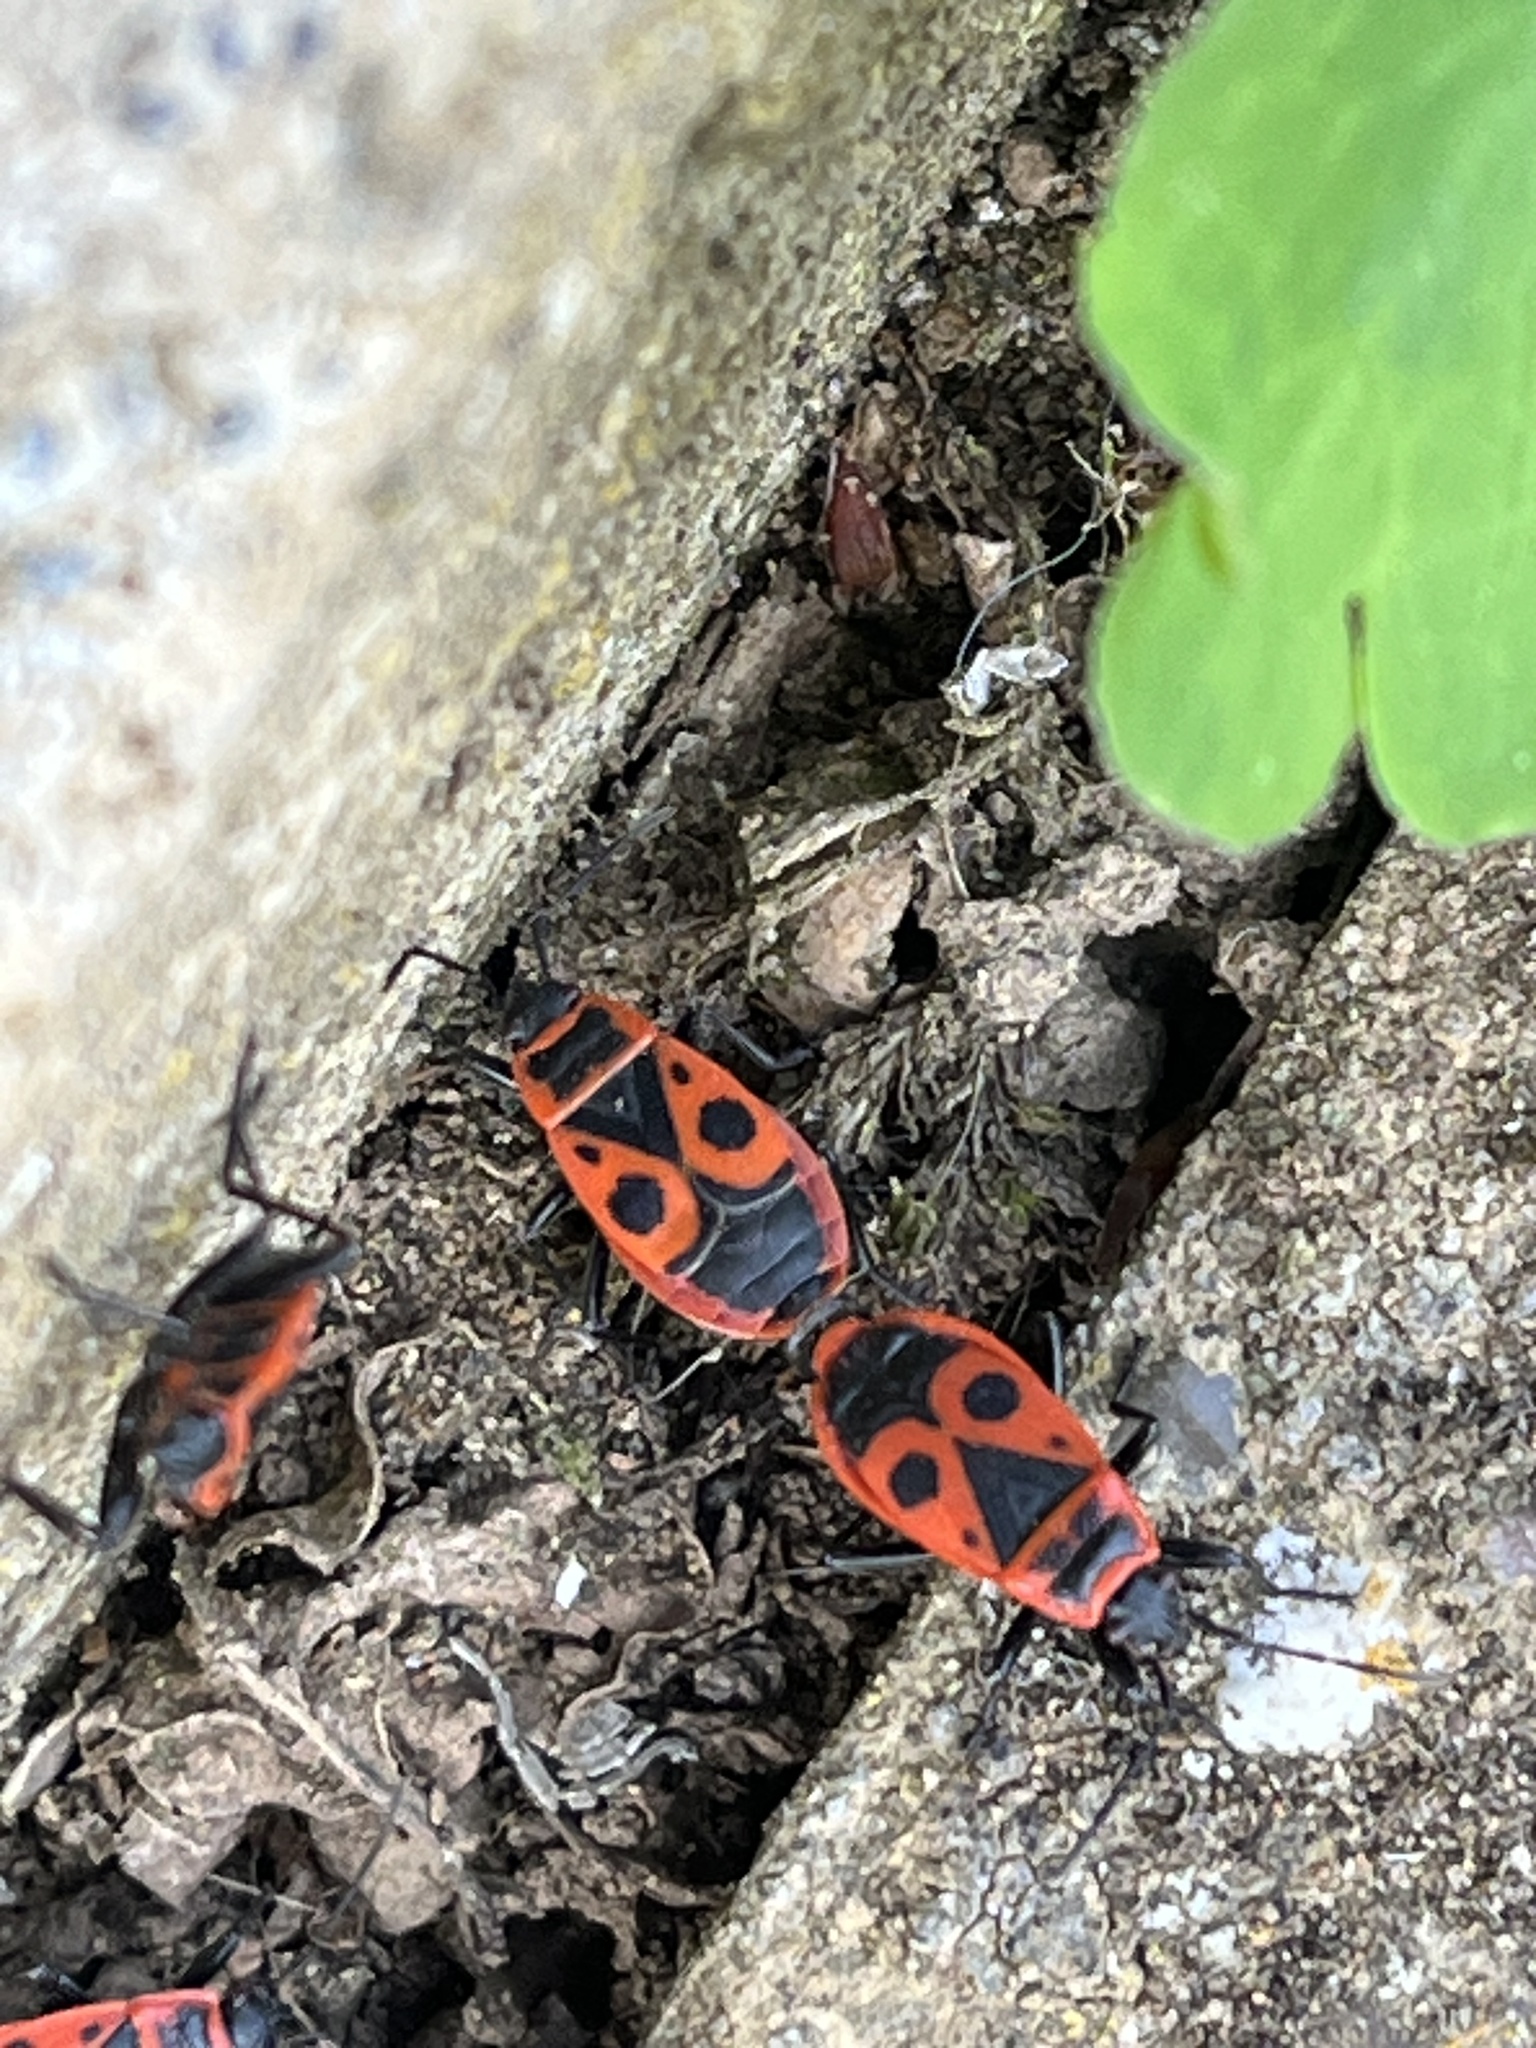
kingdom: Animalia
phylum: Arthropoda
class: Insecta
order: Hemiptera
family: Pyrrhocoridae
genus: Pyrrhocoris
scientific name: Pyrrhocoris apterus
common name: Firebug
